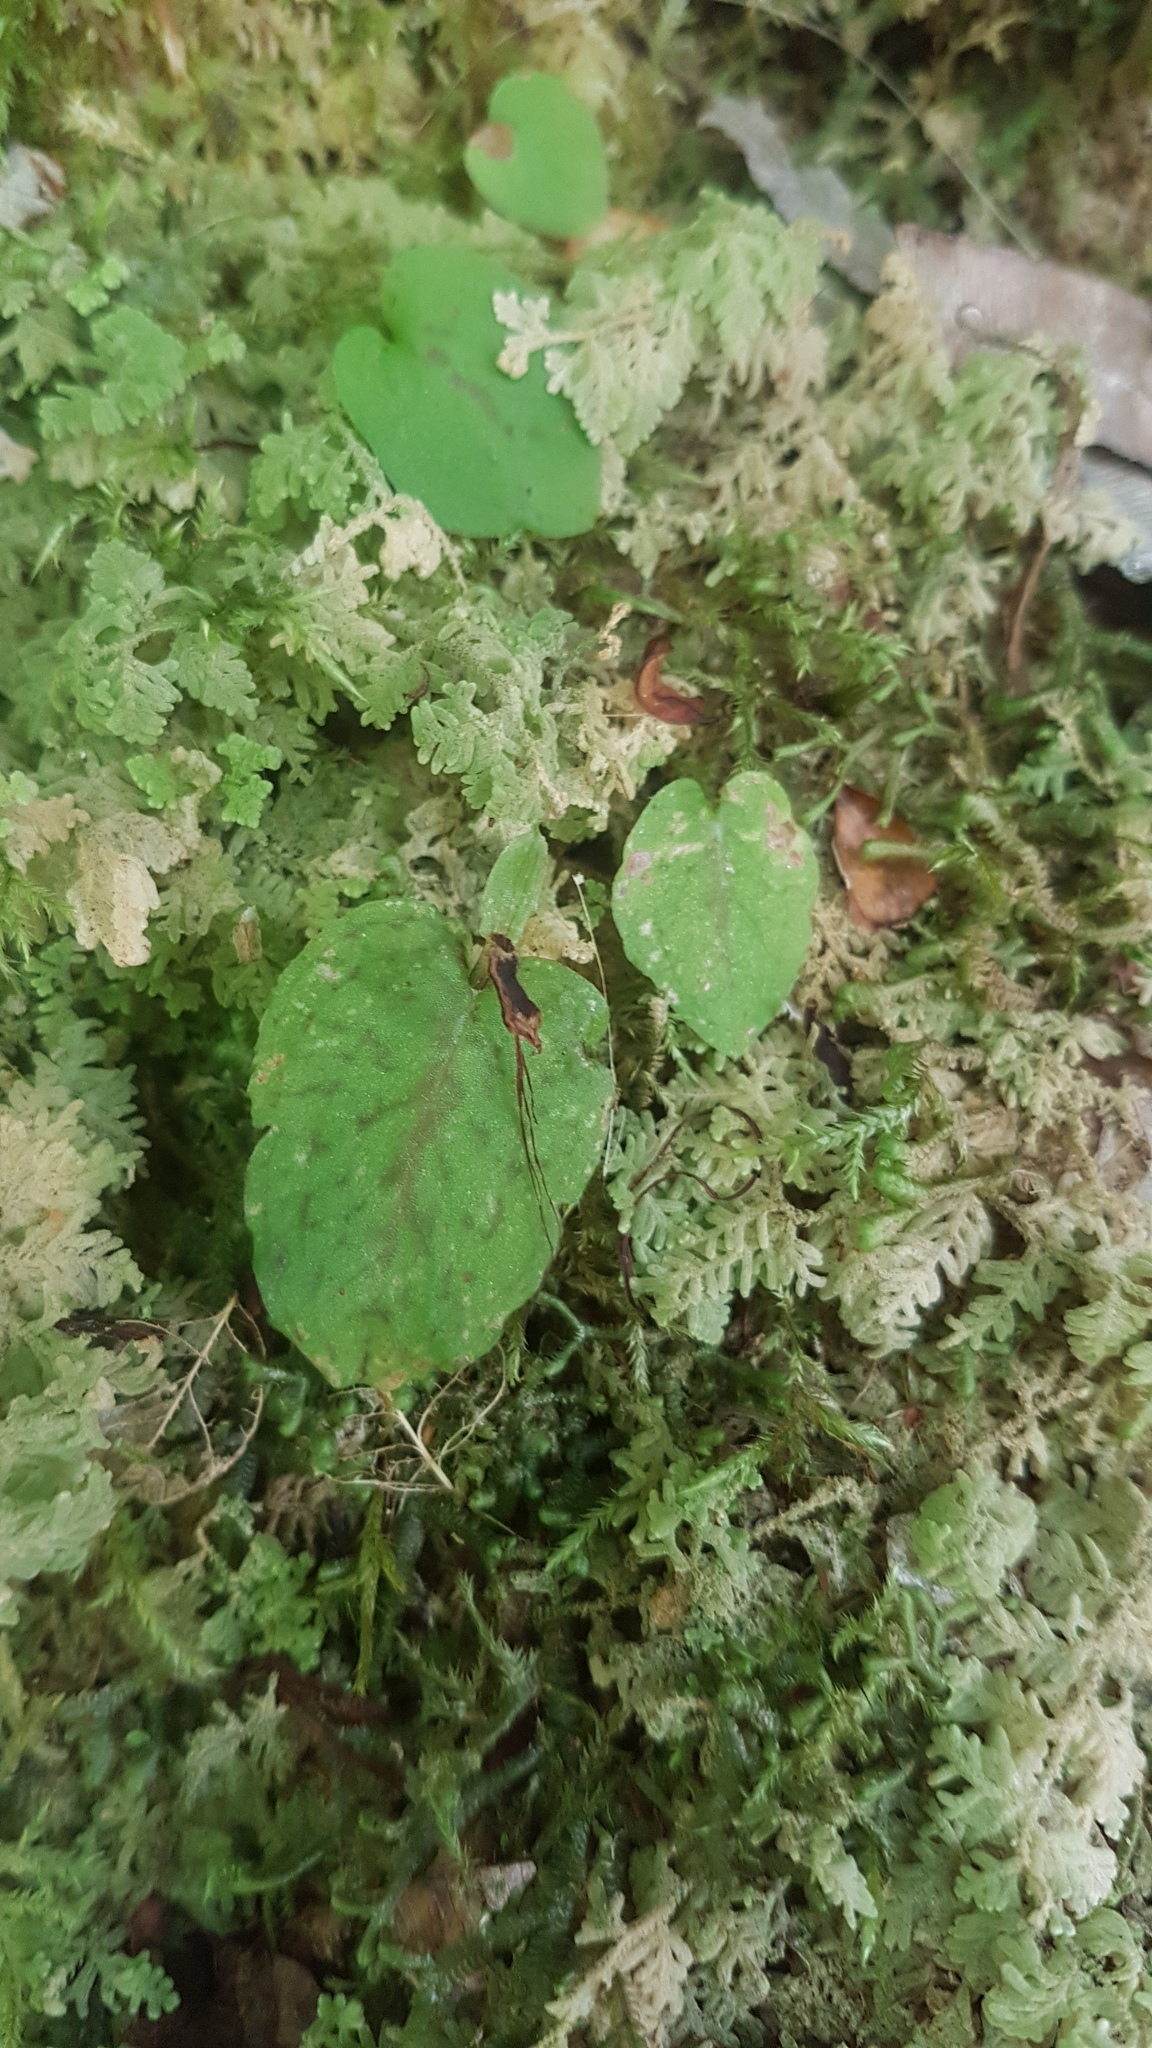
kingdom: Plantae
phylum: Tracheophyta
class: Liliopsida
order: Asparagales
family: Orchidaceae
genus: Corybas
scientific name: Corybas oblongus
